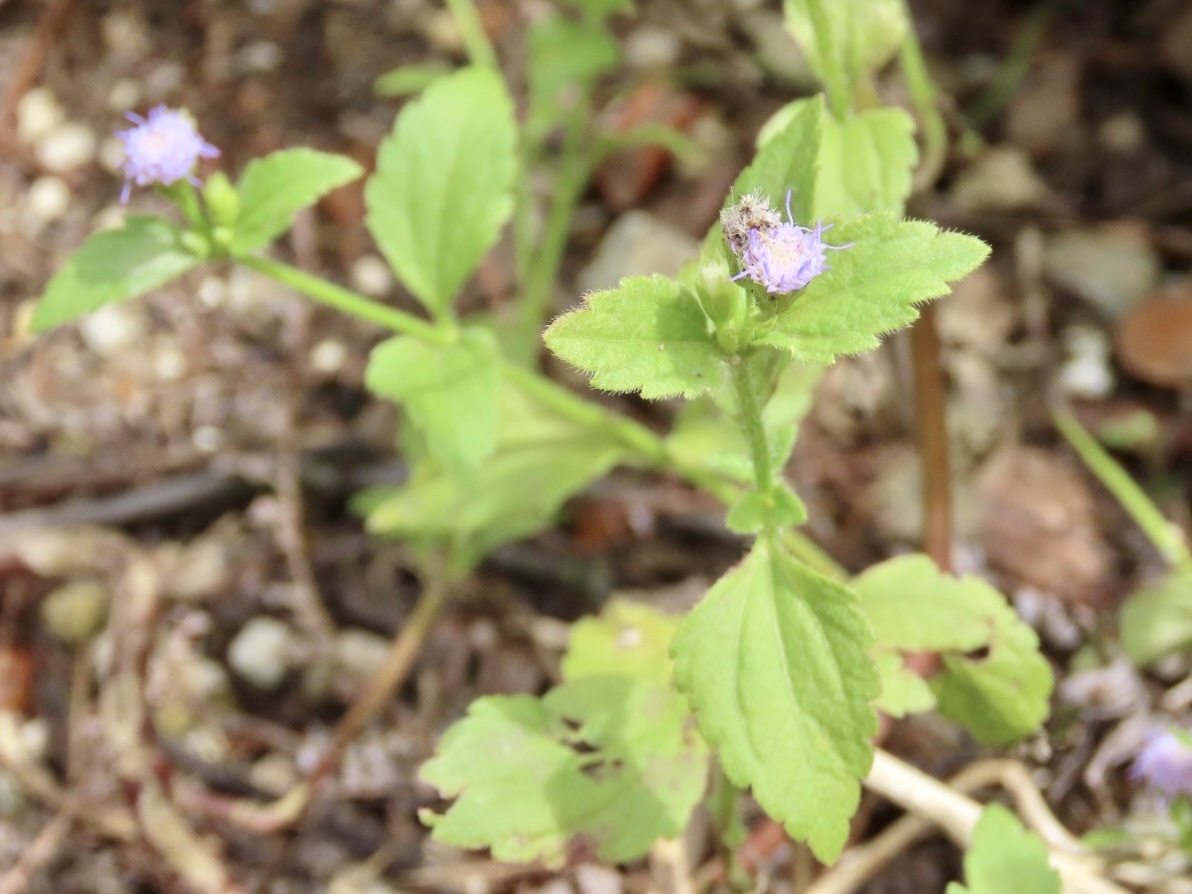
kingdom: Plantae
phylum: Tracheophyta
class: Magnoliopsida
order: Asterales
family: Asteraceae
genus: Praxelis
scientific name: Praxelis clematidea
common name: Praxelis
